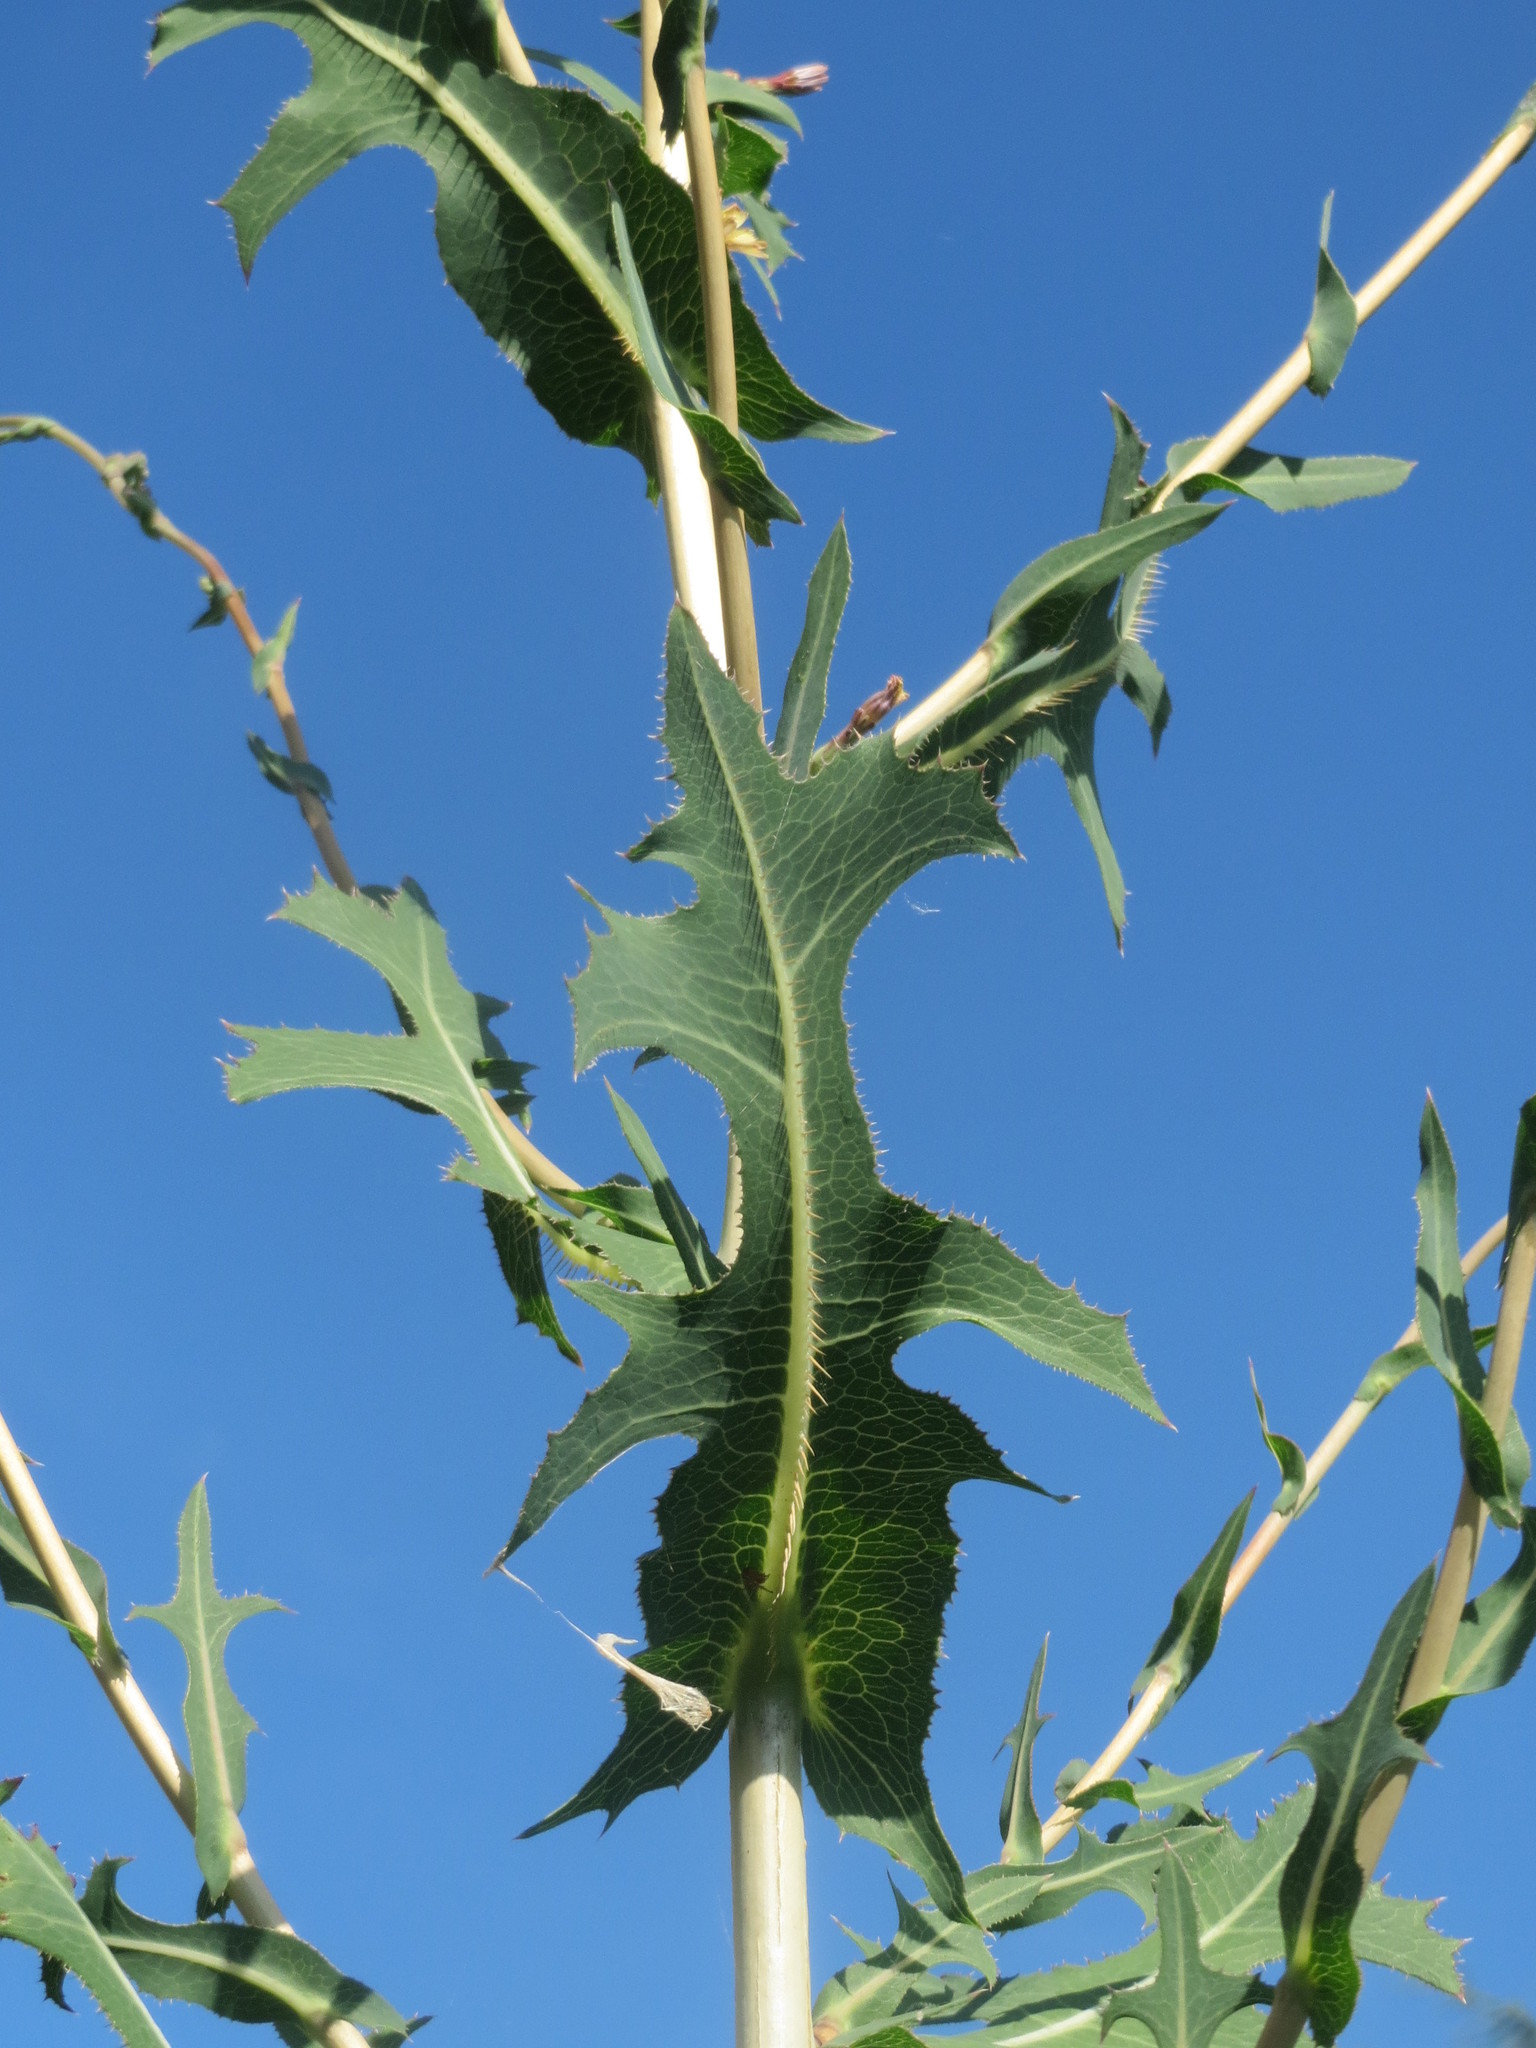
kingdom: Plantae
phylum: Tracheophyta
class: Magnoliopsida
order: Asterales
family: Asteraceae
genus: Lactuca
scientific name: Lactuca serriola
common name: Prickly lettuce
